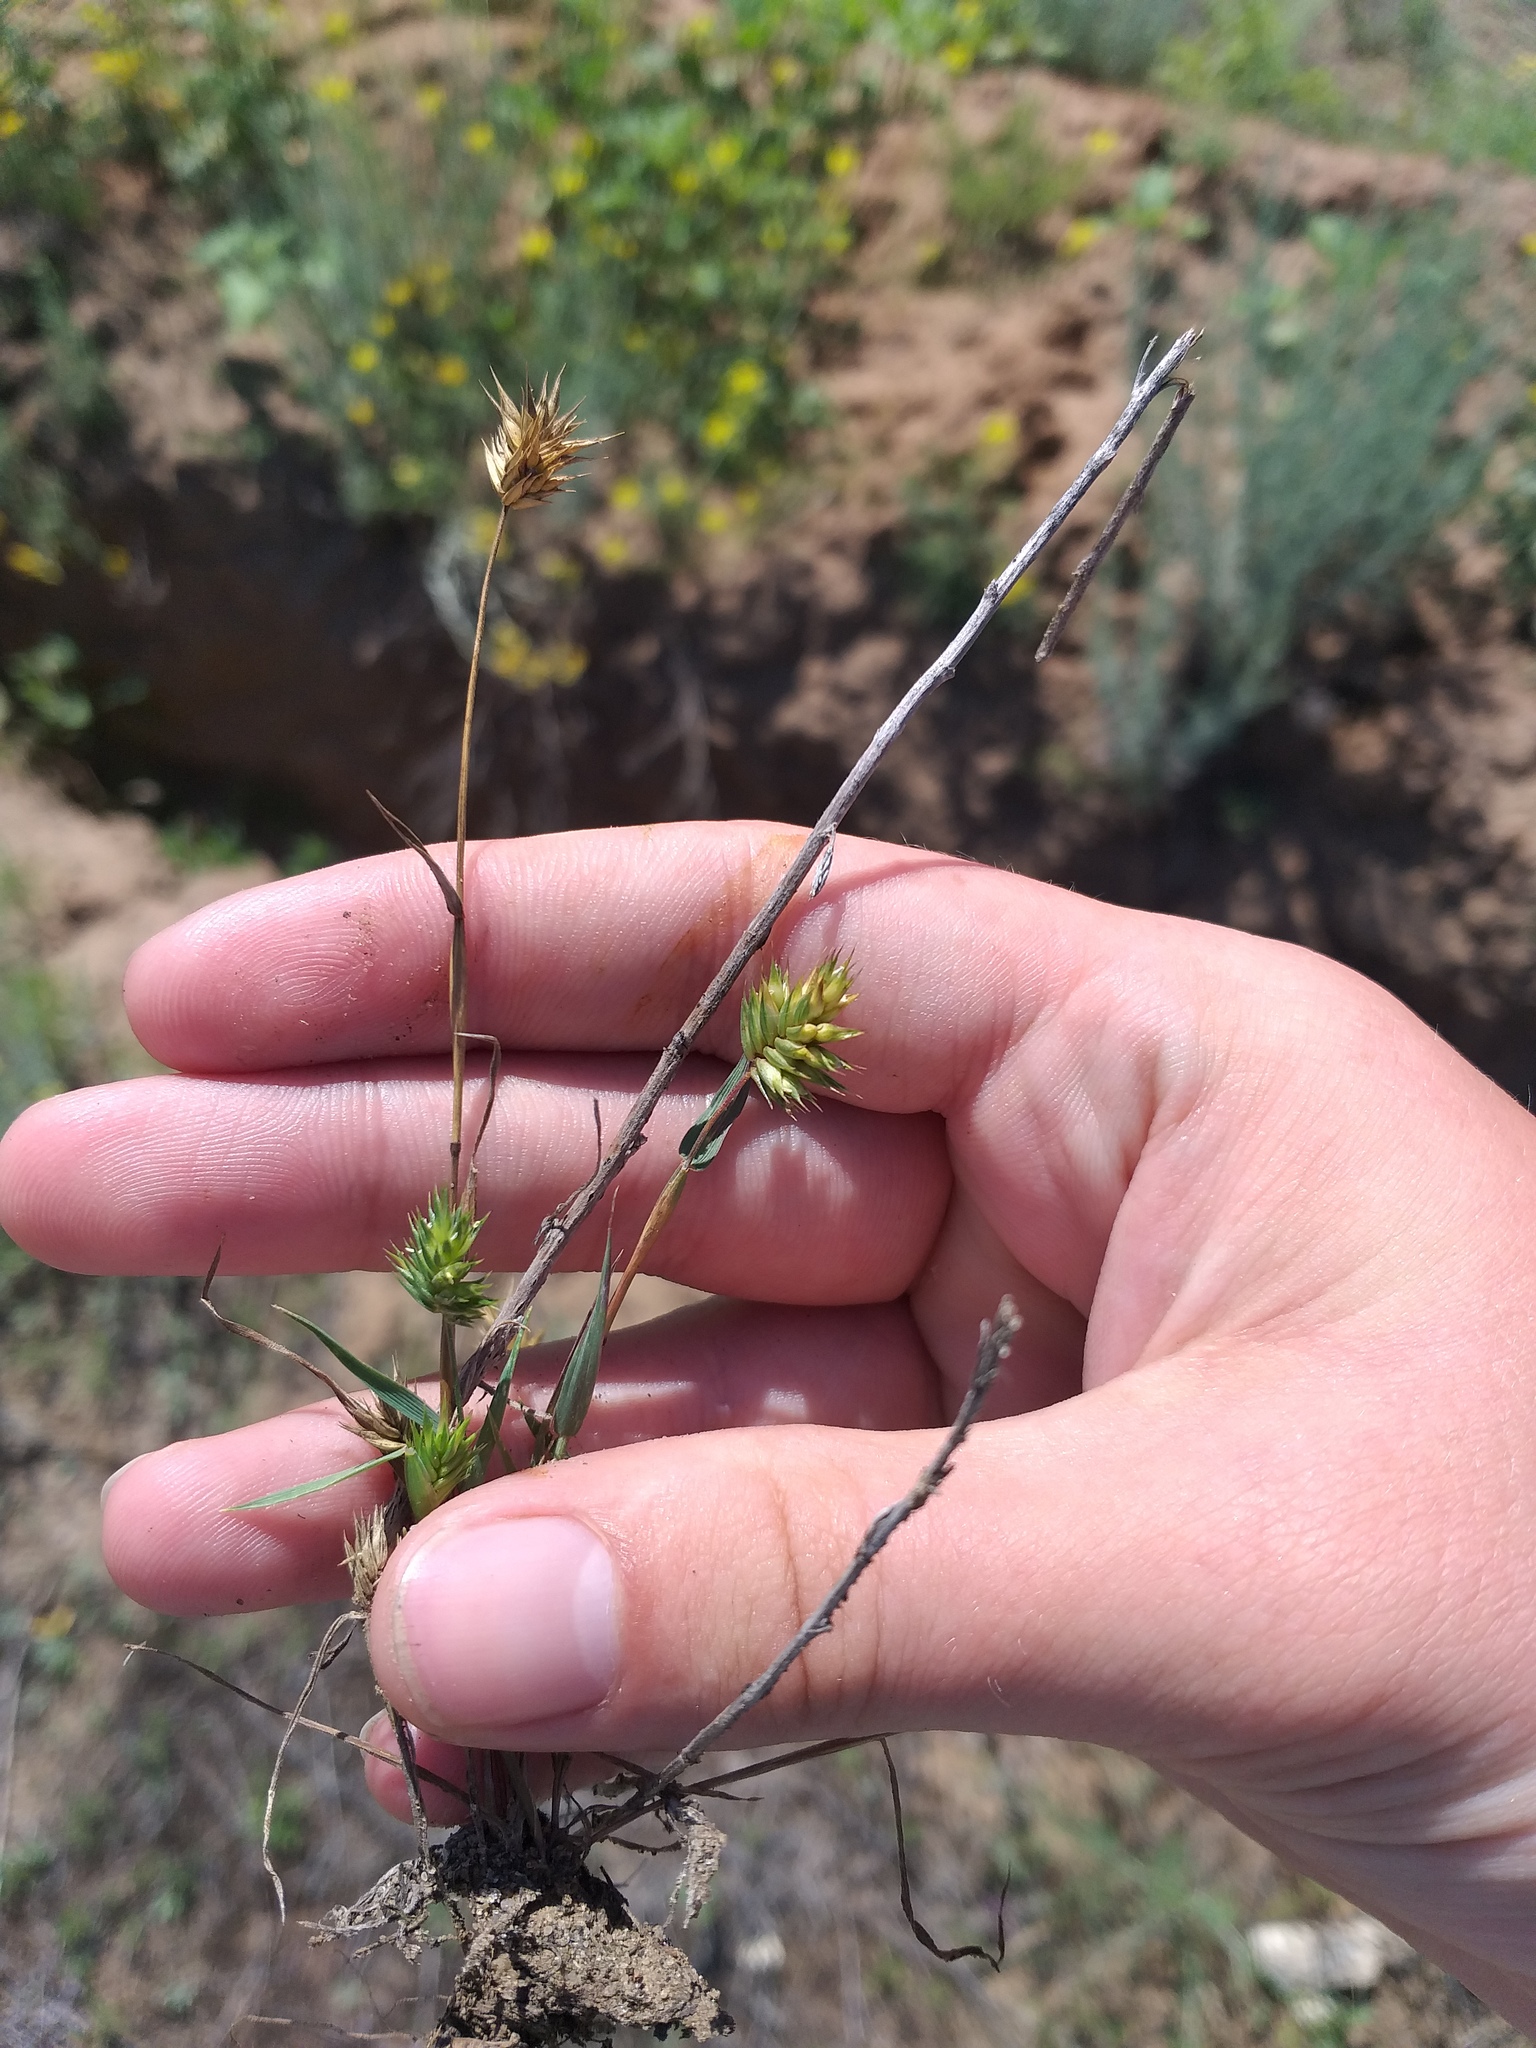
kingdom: Plantae
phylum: Tracheophyta
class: Liliopsida
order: Poales
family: Poaceae
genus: Eremopyrum
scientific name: Eremopyrum triticeum
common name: Annual wheatgrass
